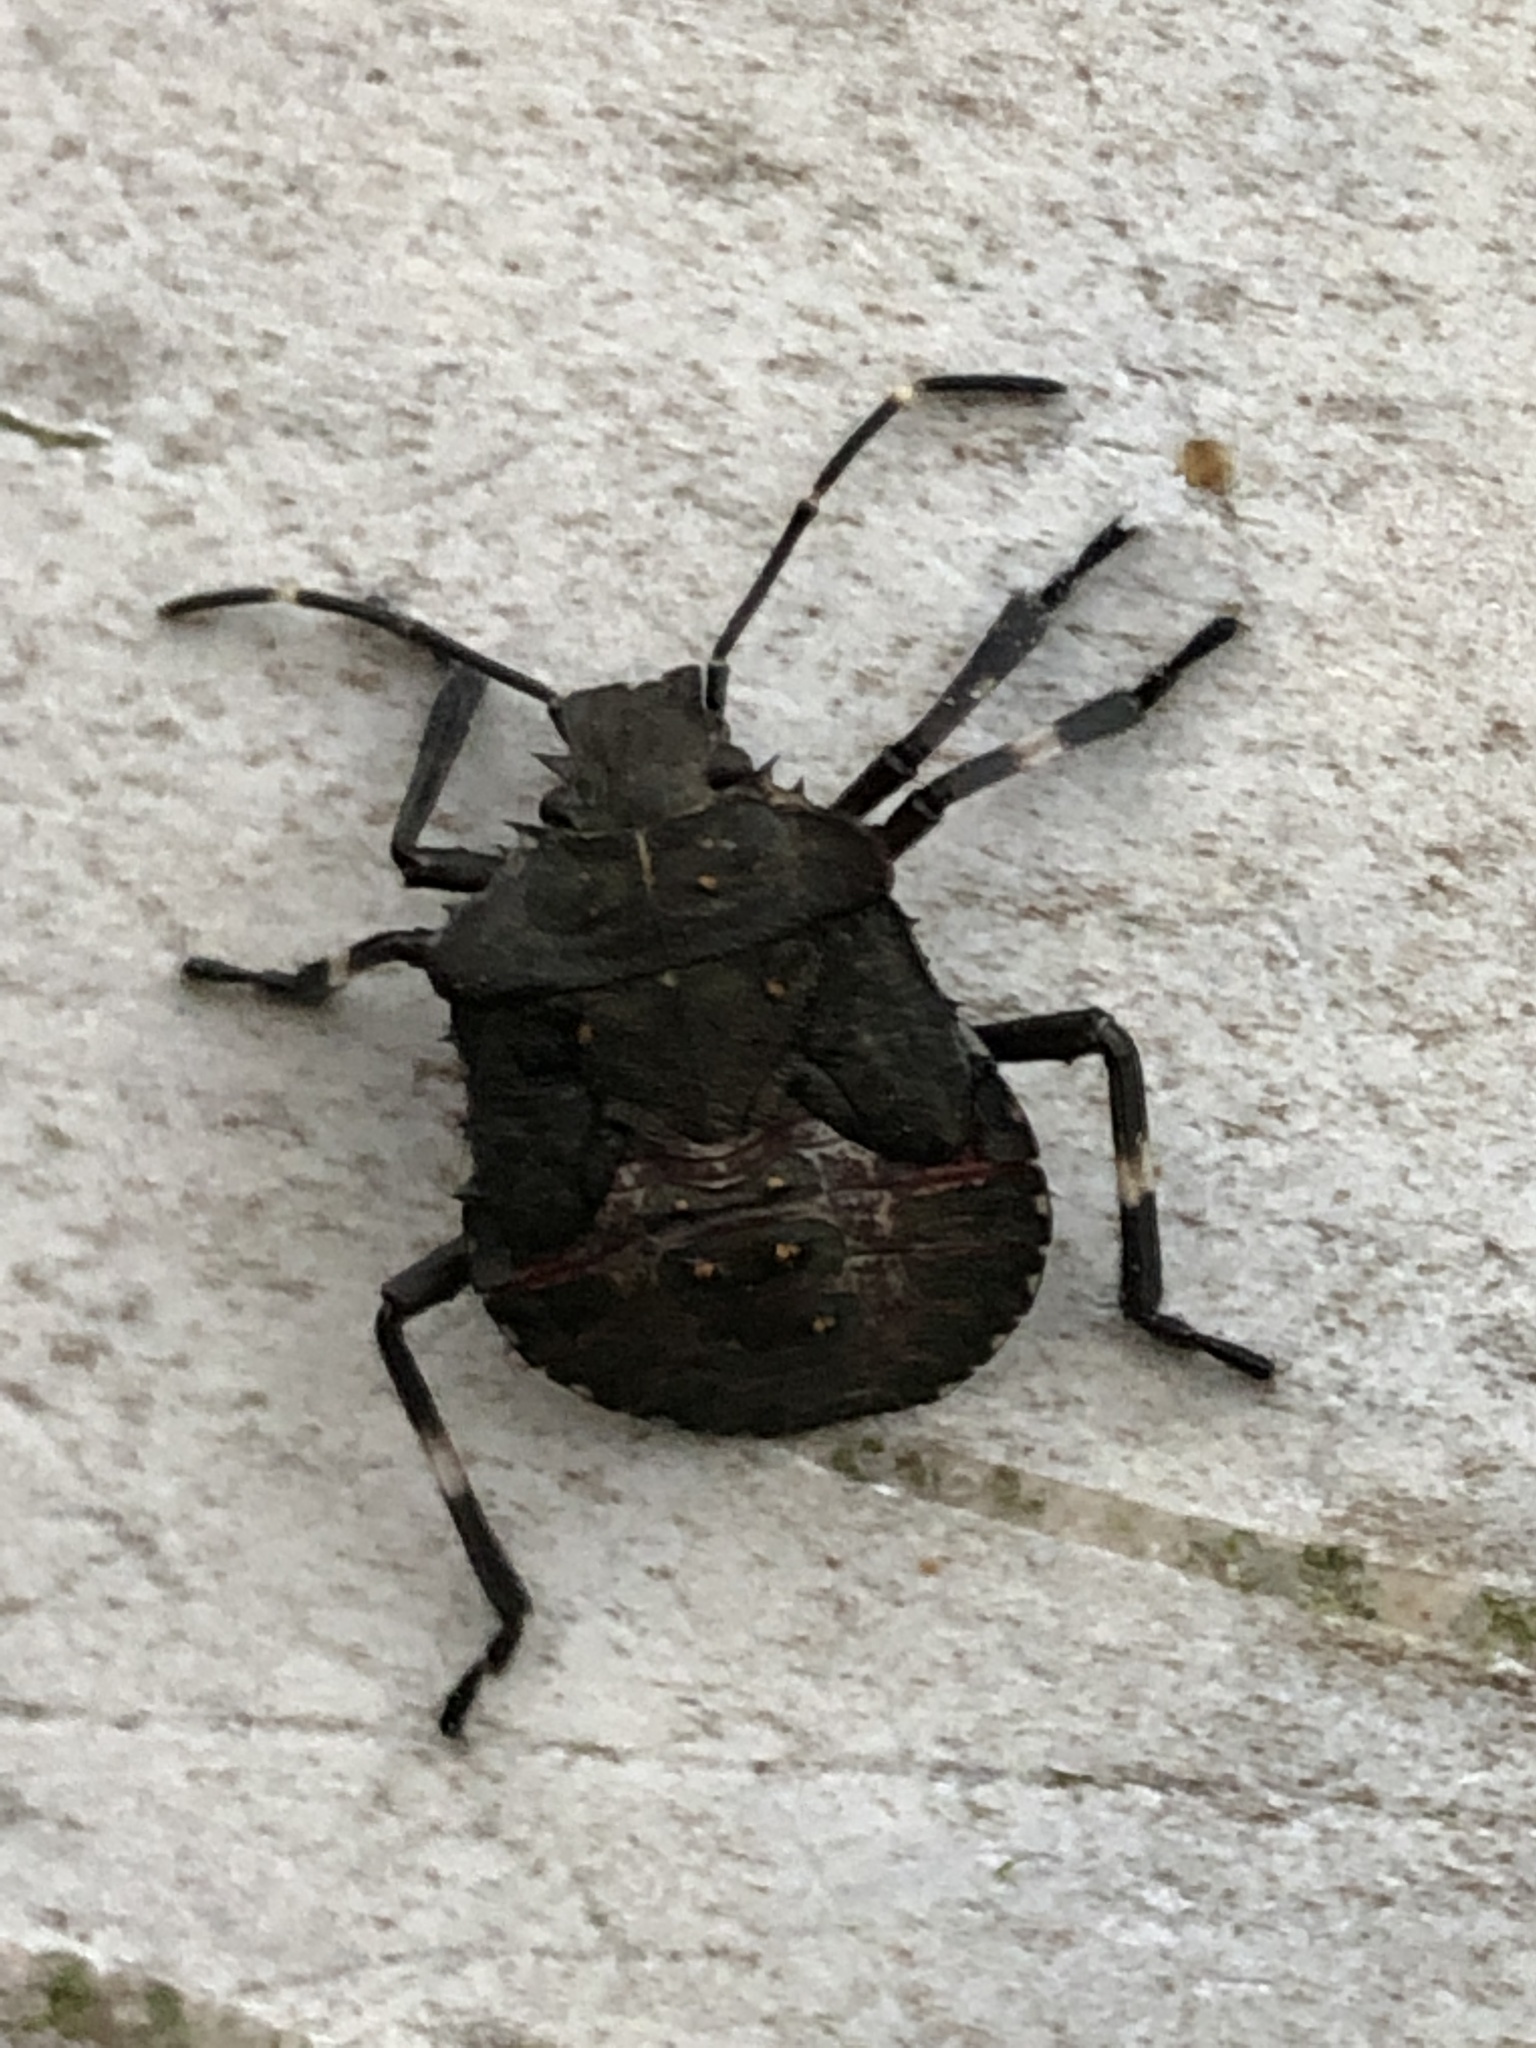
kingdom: Animalia
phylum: Arthropoda
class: Insecta
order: Hemiptera
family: Pentatomidae
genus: Halyomorpha
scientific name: Halyomorpha halys
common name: Brown marmorated stink bug
